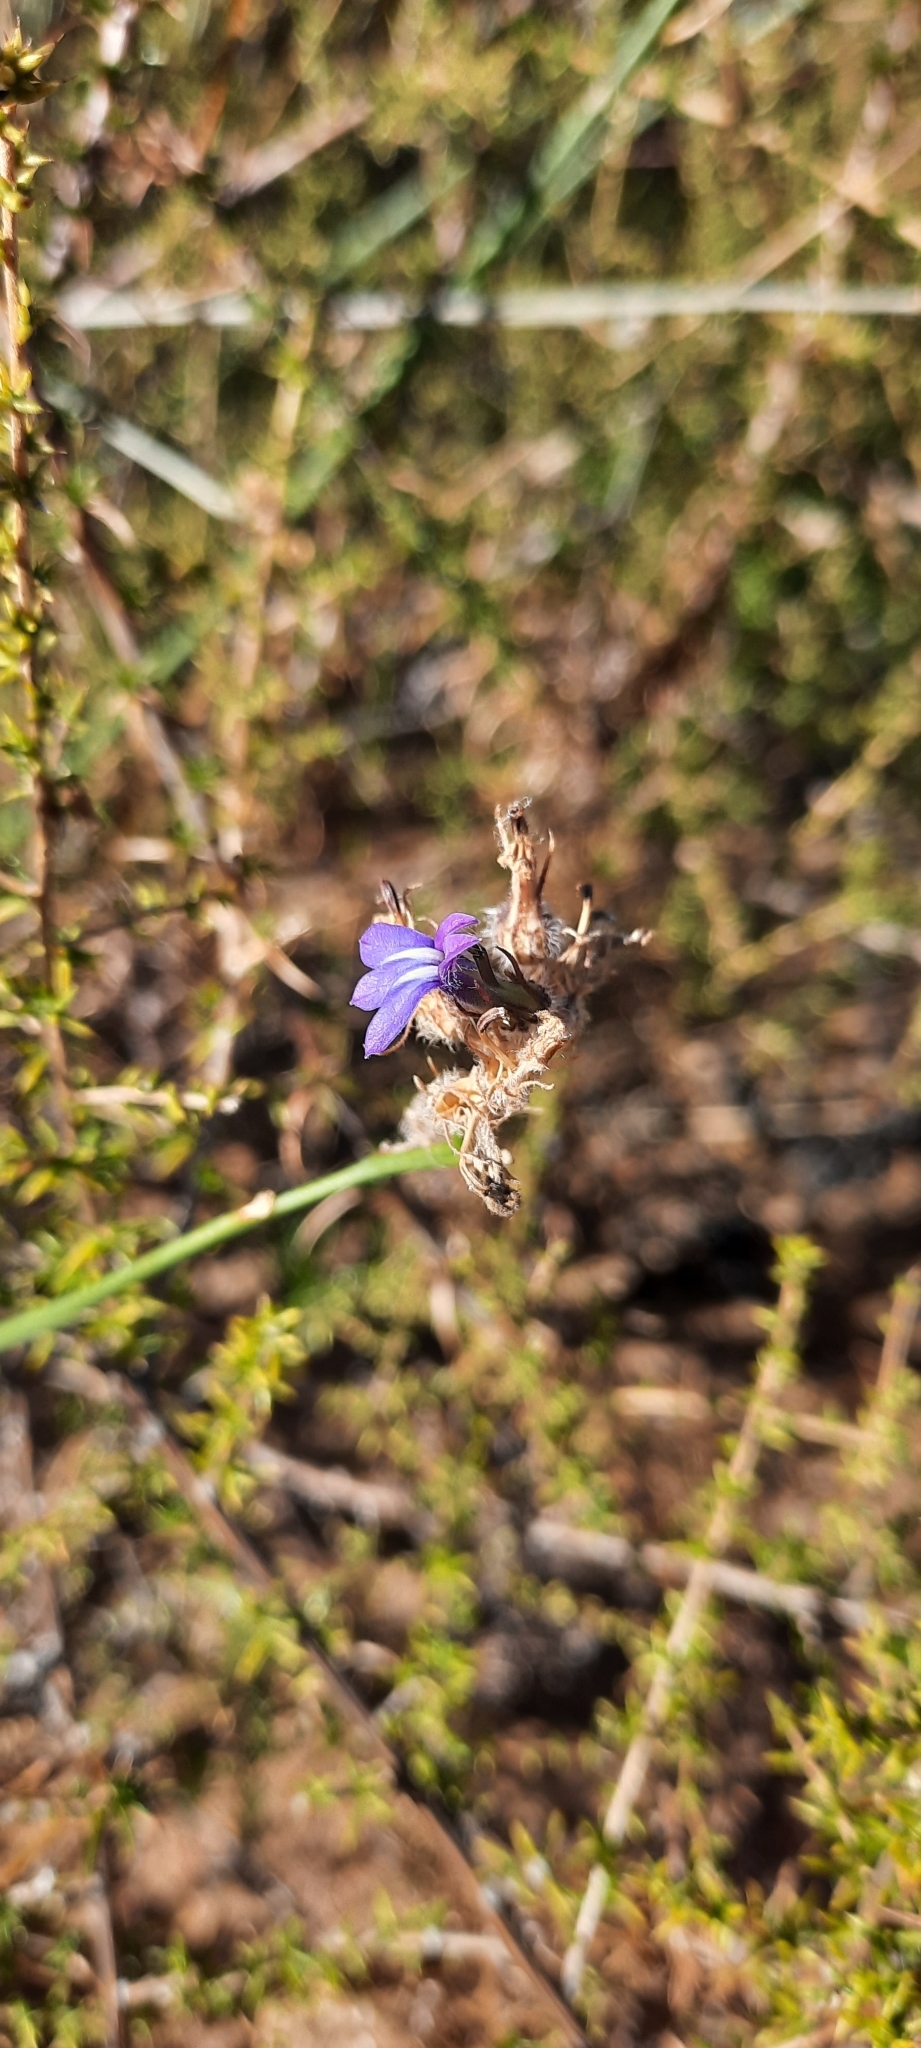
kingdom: Plantae
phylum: Tracheophyta
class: Magnoliopsida
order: Asterales
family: Campanulaceae
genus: Lobelia
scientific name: Lobelia linearis
